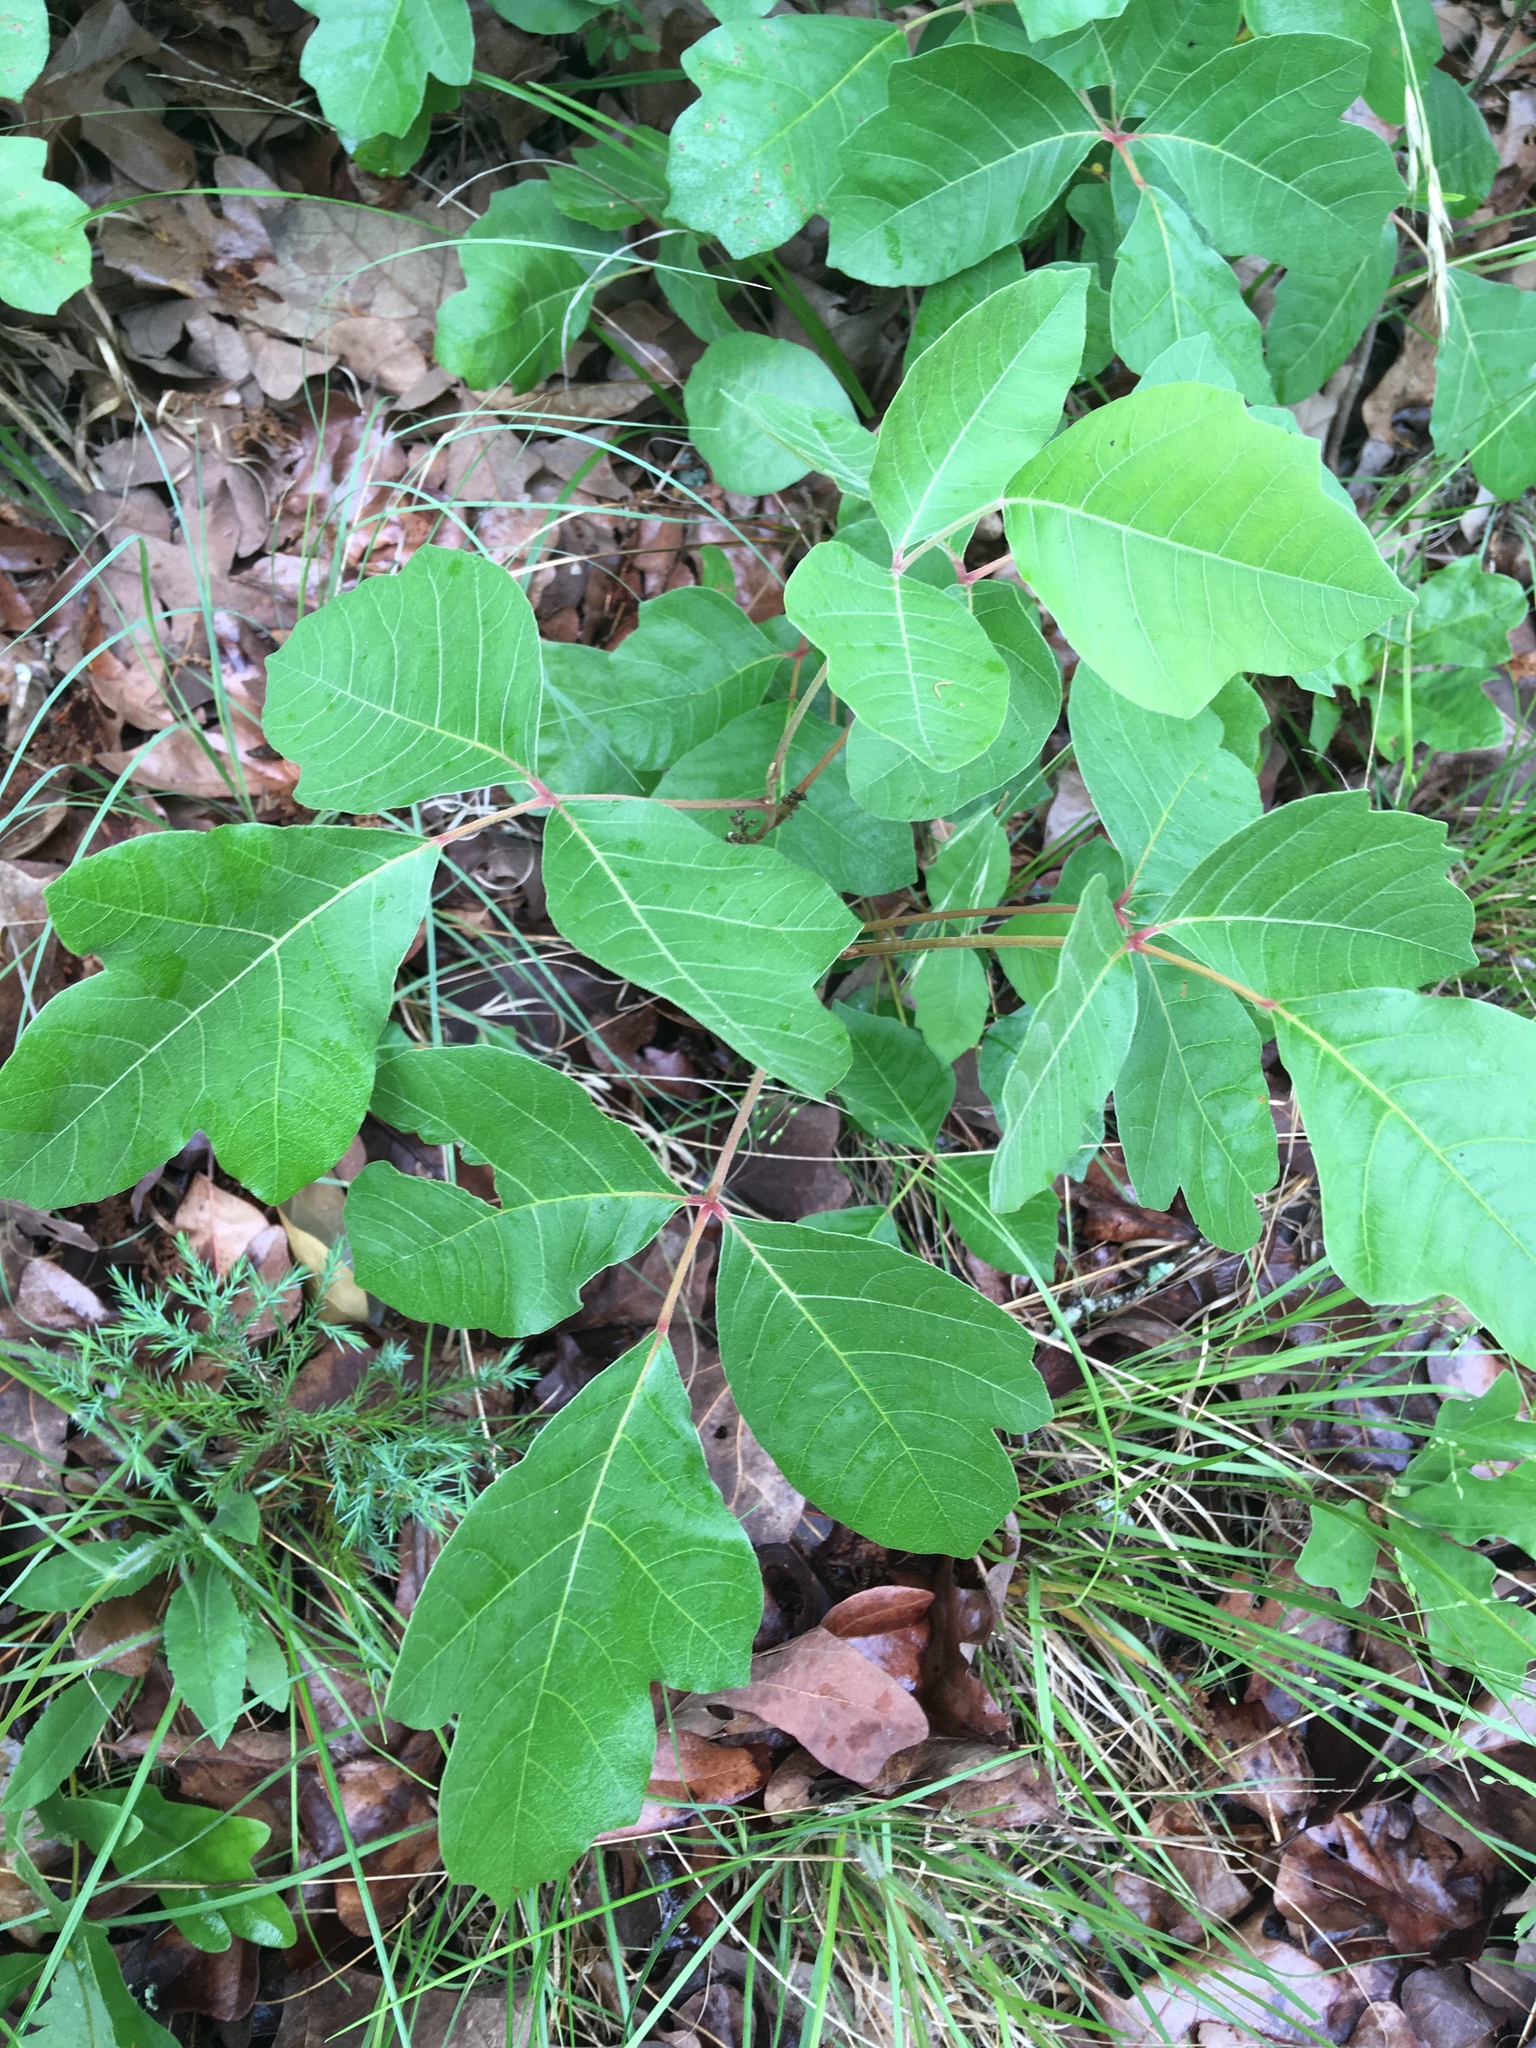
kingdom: Plantae
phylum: Tracheophyta
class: Magnoliopsida
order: Sapindales
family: Anacardiaceae
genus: Toxicodendron
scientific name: Toxicodendron pubescens
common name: Eastern poison-oak
